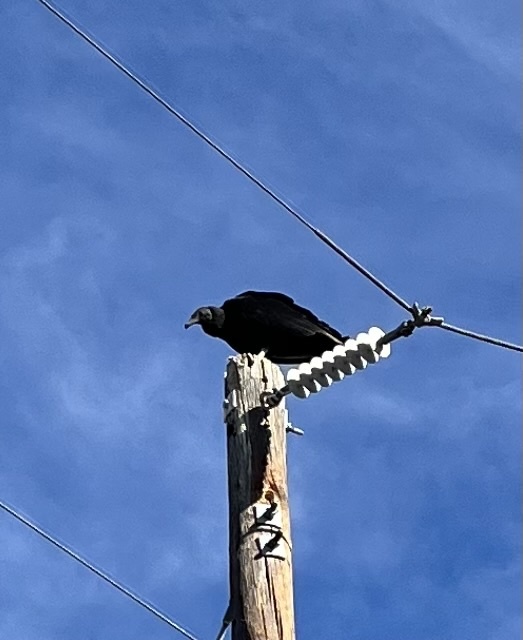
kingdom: Animalia
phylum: Chordata
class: Aves
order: Accipitriformes
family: Cathartidae
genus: Coragyps
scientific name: Coragyps atratus
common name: Black vulture
